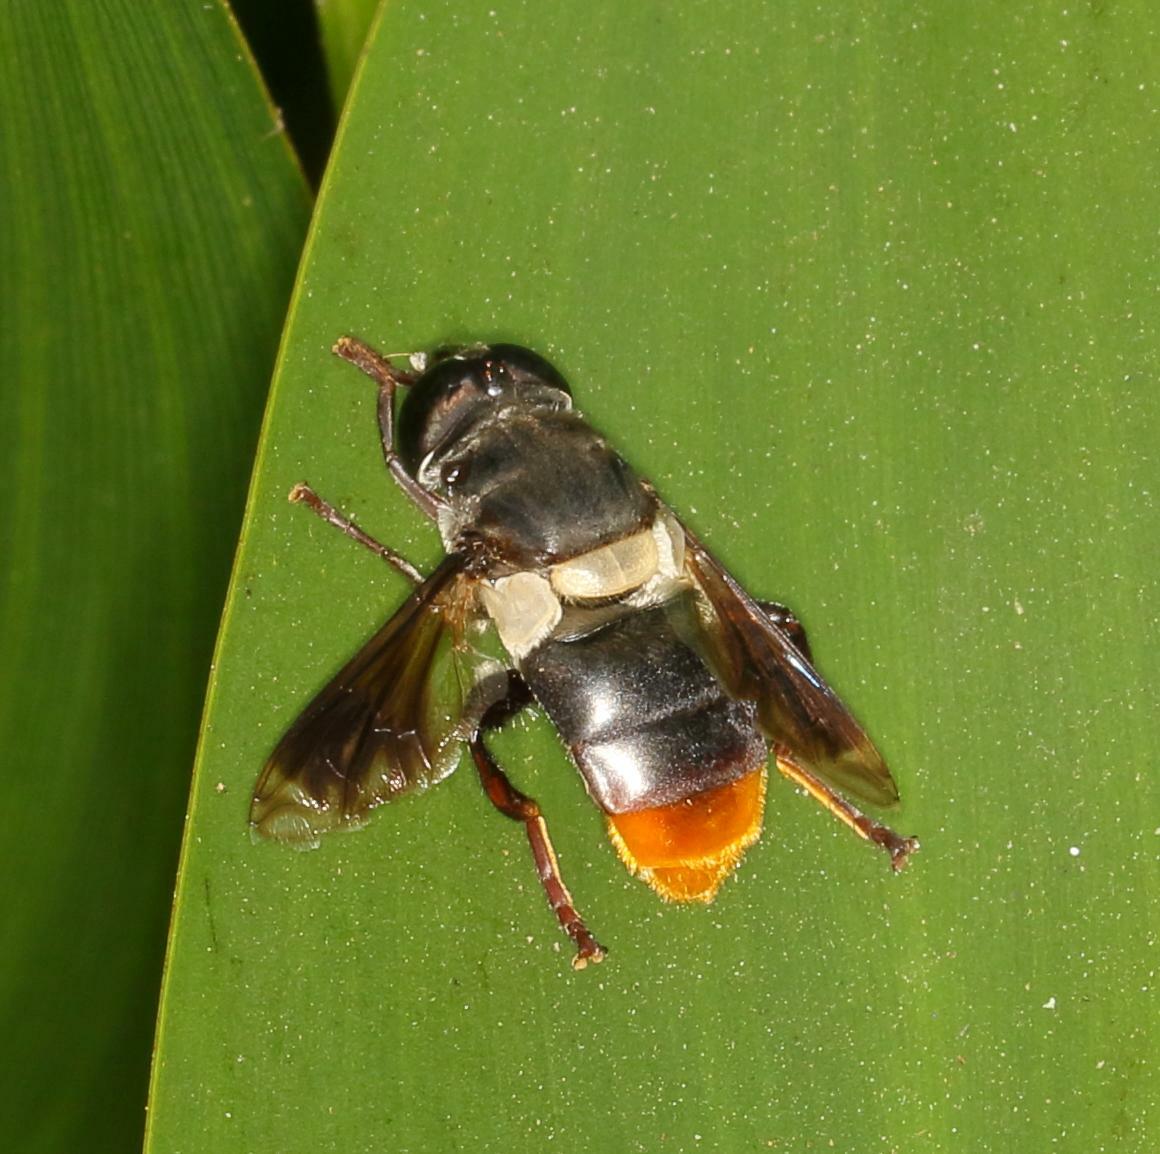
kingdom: Animalia
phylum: Arthropoda
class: Insecta
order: Diptera
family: Syrphidae
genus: Senaspis
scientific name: Senaspis haemorrhoa
